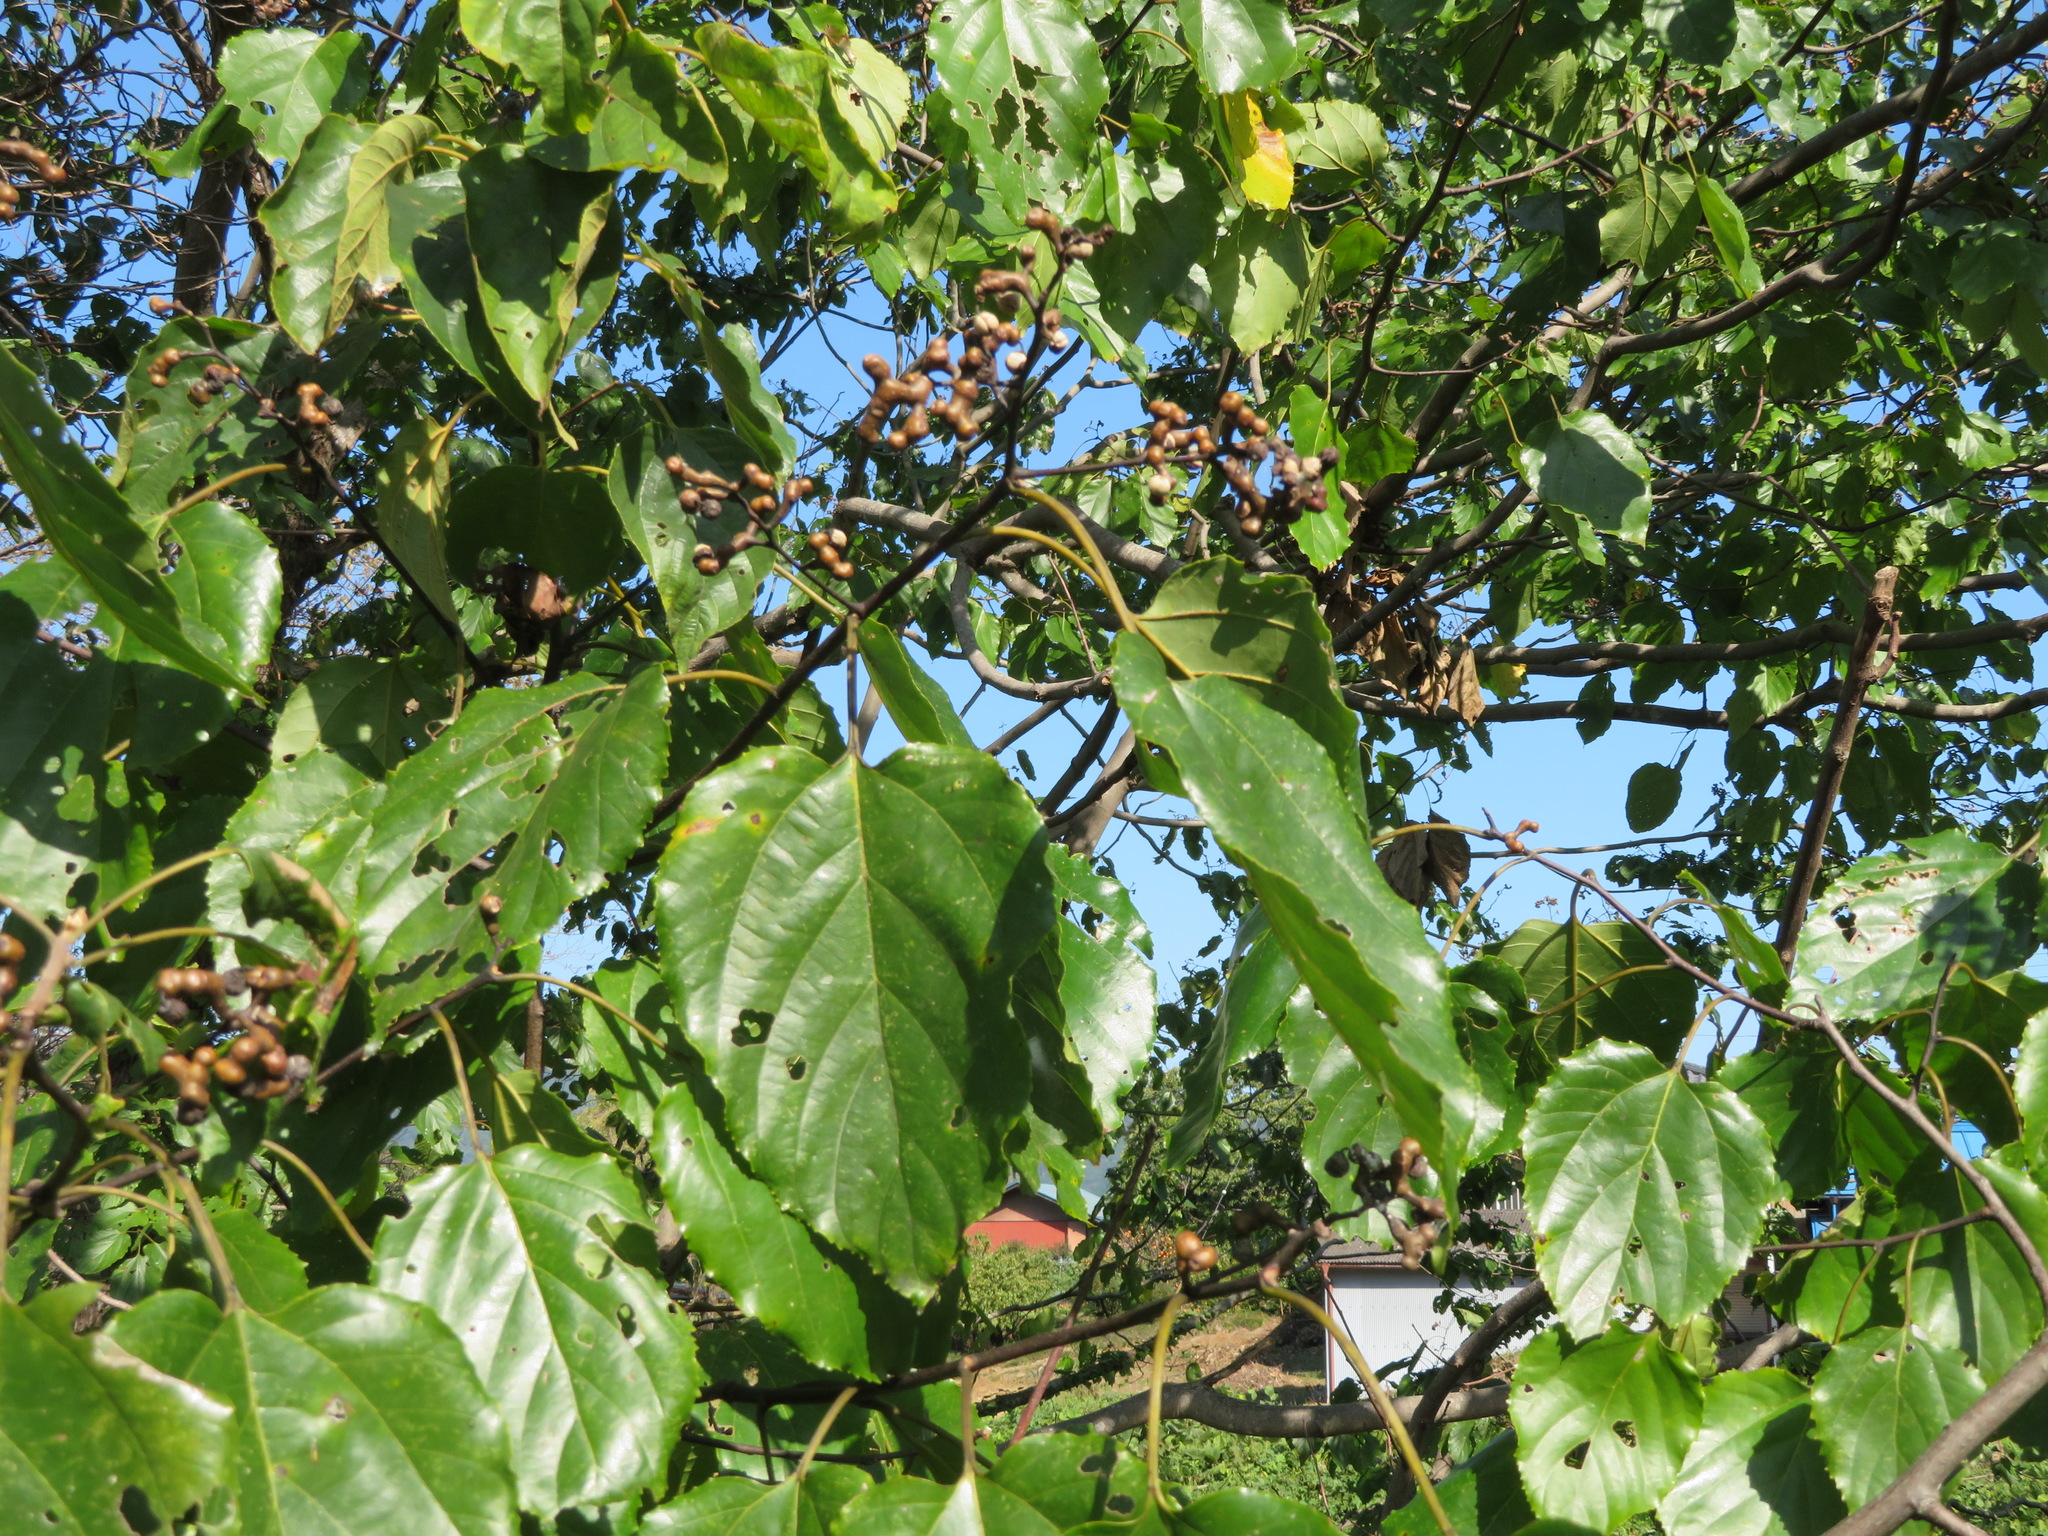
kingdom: Plantae
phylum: Tracheophyta
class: Magnoliopsida
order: Rosales
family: Rhamnaceae
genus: Hovenia
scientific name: Hovenia dulcis
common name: Japanese raisintree
